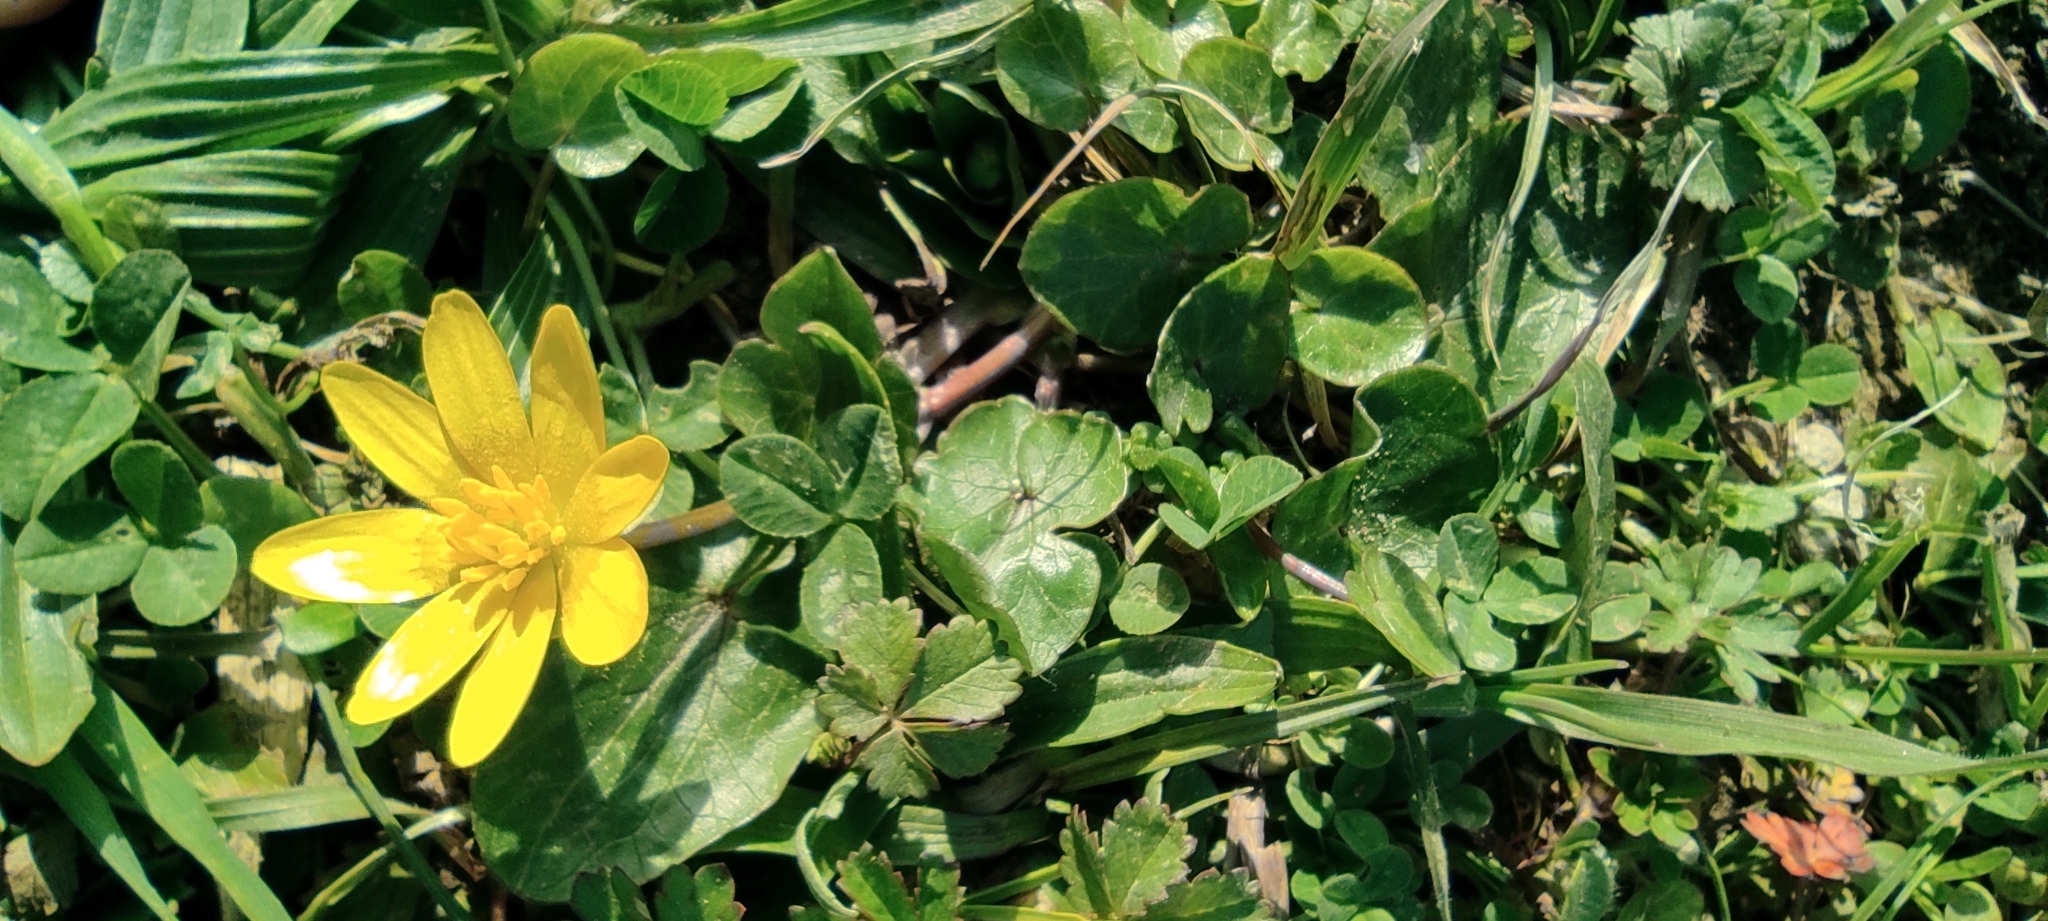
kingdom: Plantae
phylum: Tracheophyta
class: Magnoliopsida
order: Ranunculales
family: Ranunculaceae
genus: Ficaria
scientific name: Ficaria verna
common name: Lesser celandine
